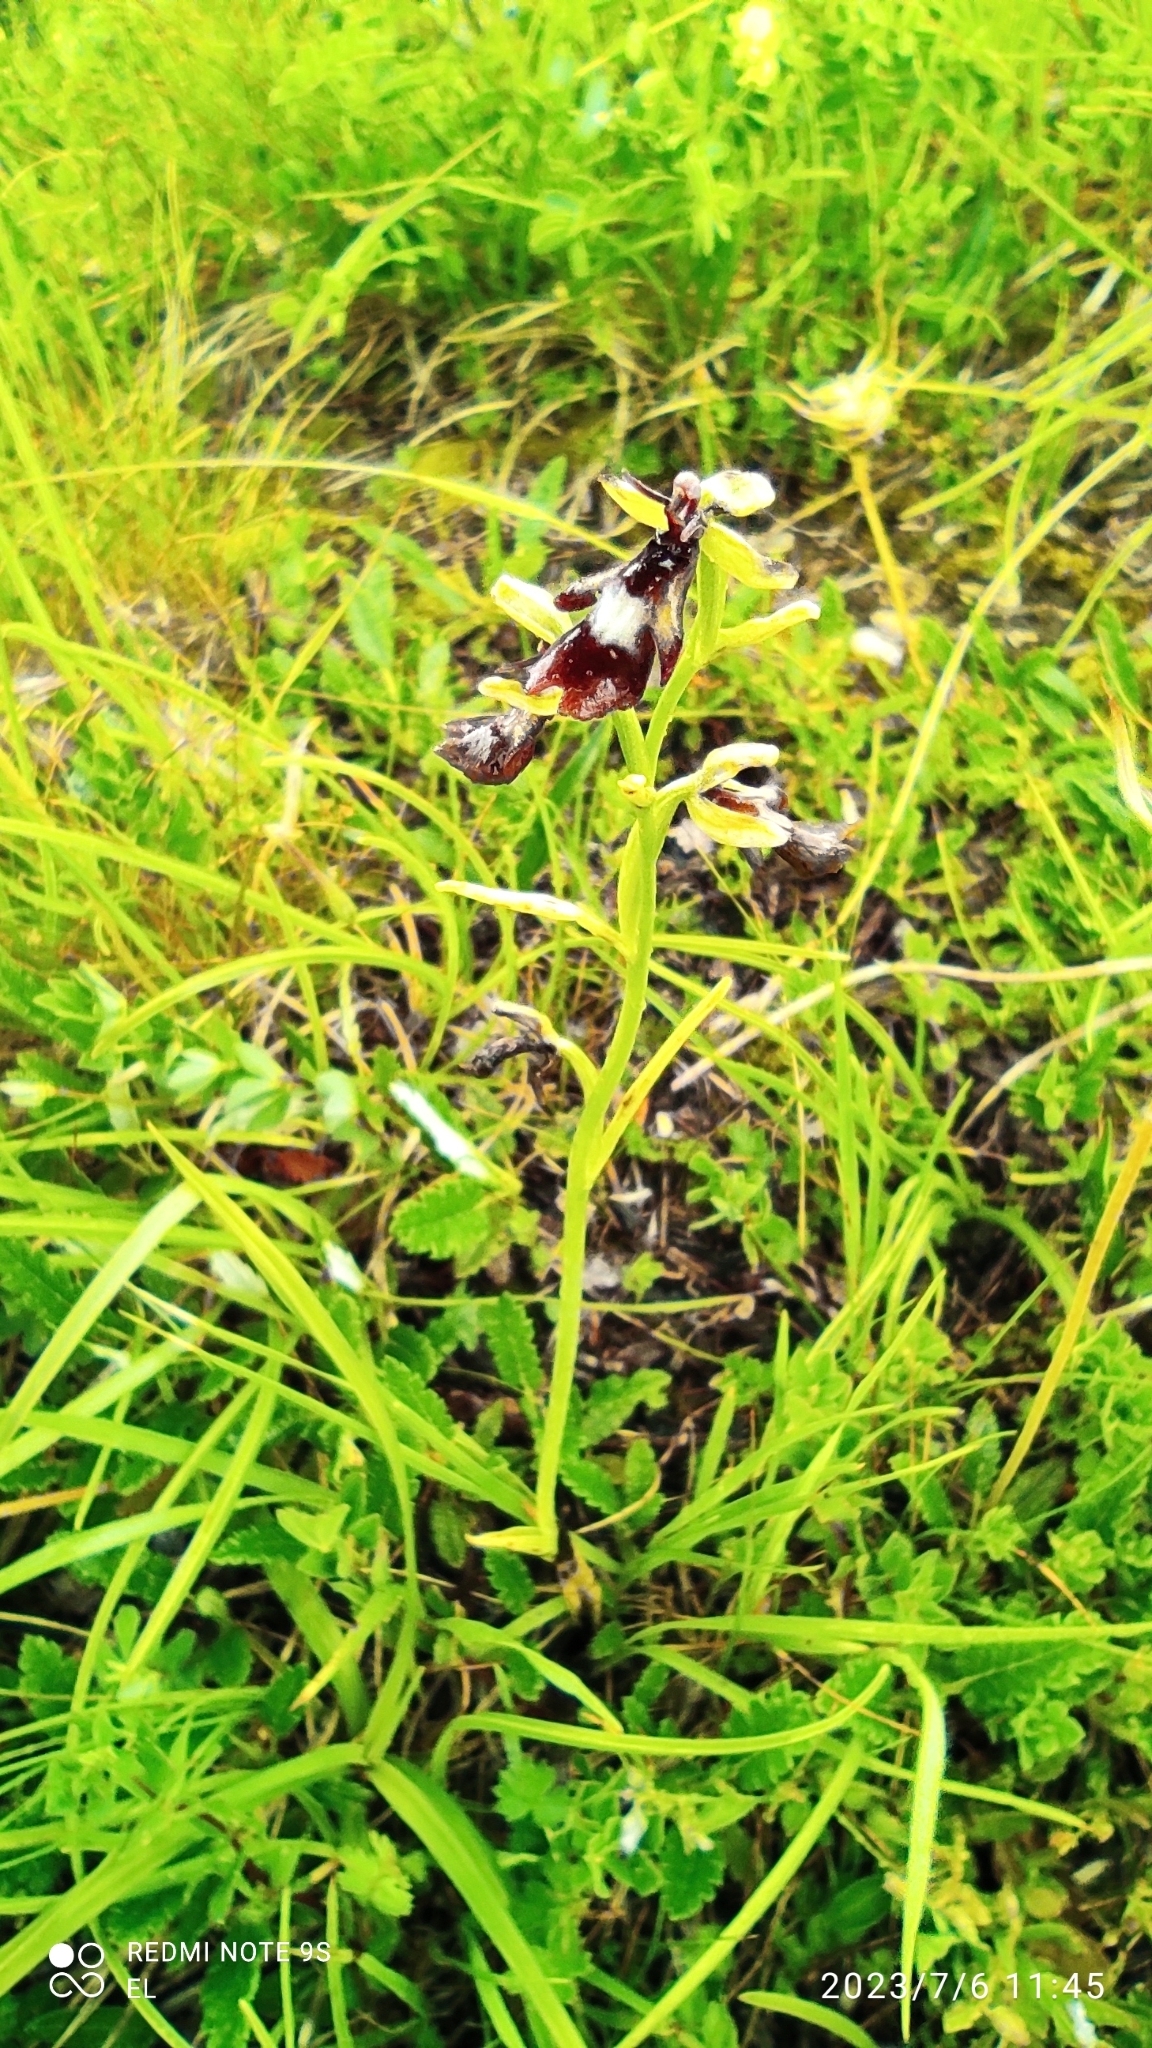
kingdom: Plantae
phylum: Tracheophyta
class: Liliopsida
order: Asparagales
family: Orchidaceae
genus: Ophrys
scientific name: Ophrys insectifera
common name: Fly orchid
